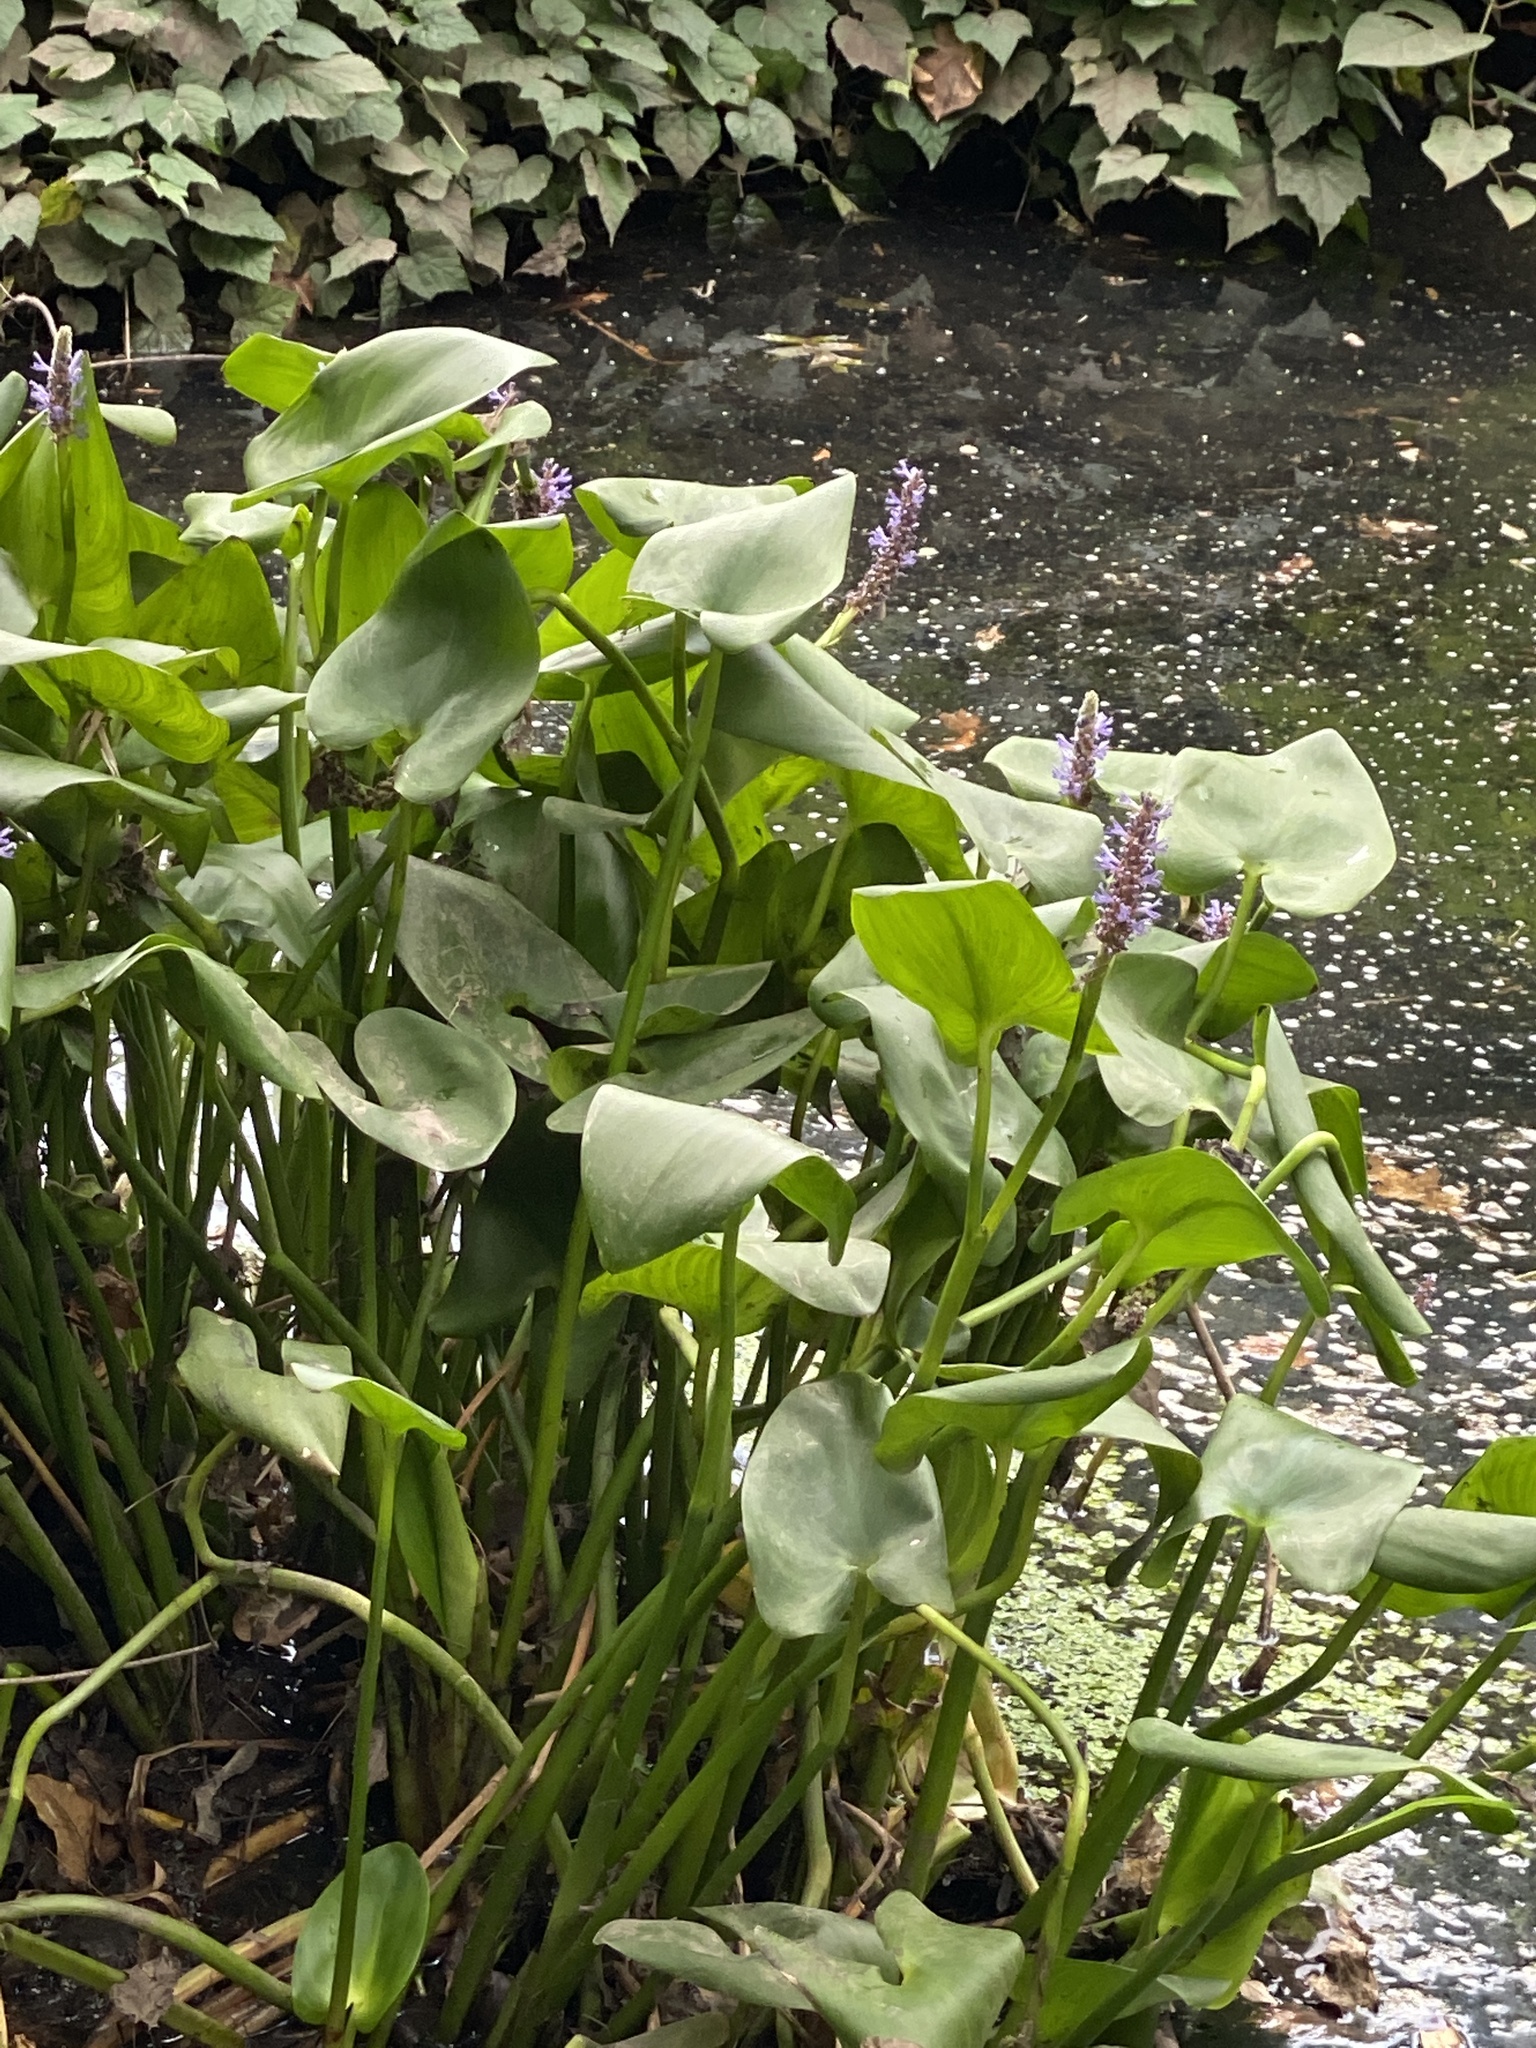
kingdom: Plantae
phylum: Tracheophyta
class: Liliopsida
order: Commelinales
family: Pontederiaceae
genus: Pontederia
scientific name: Pontederia cordata
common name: Pickerelweed
